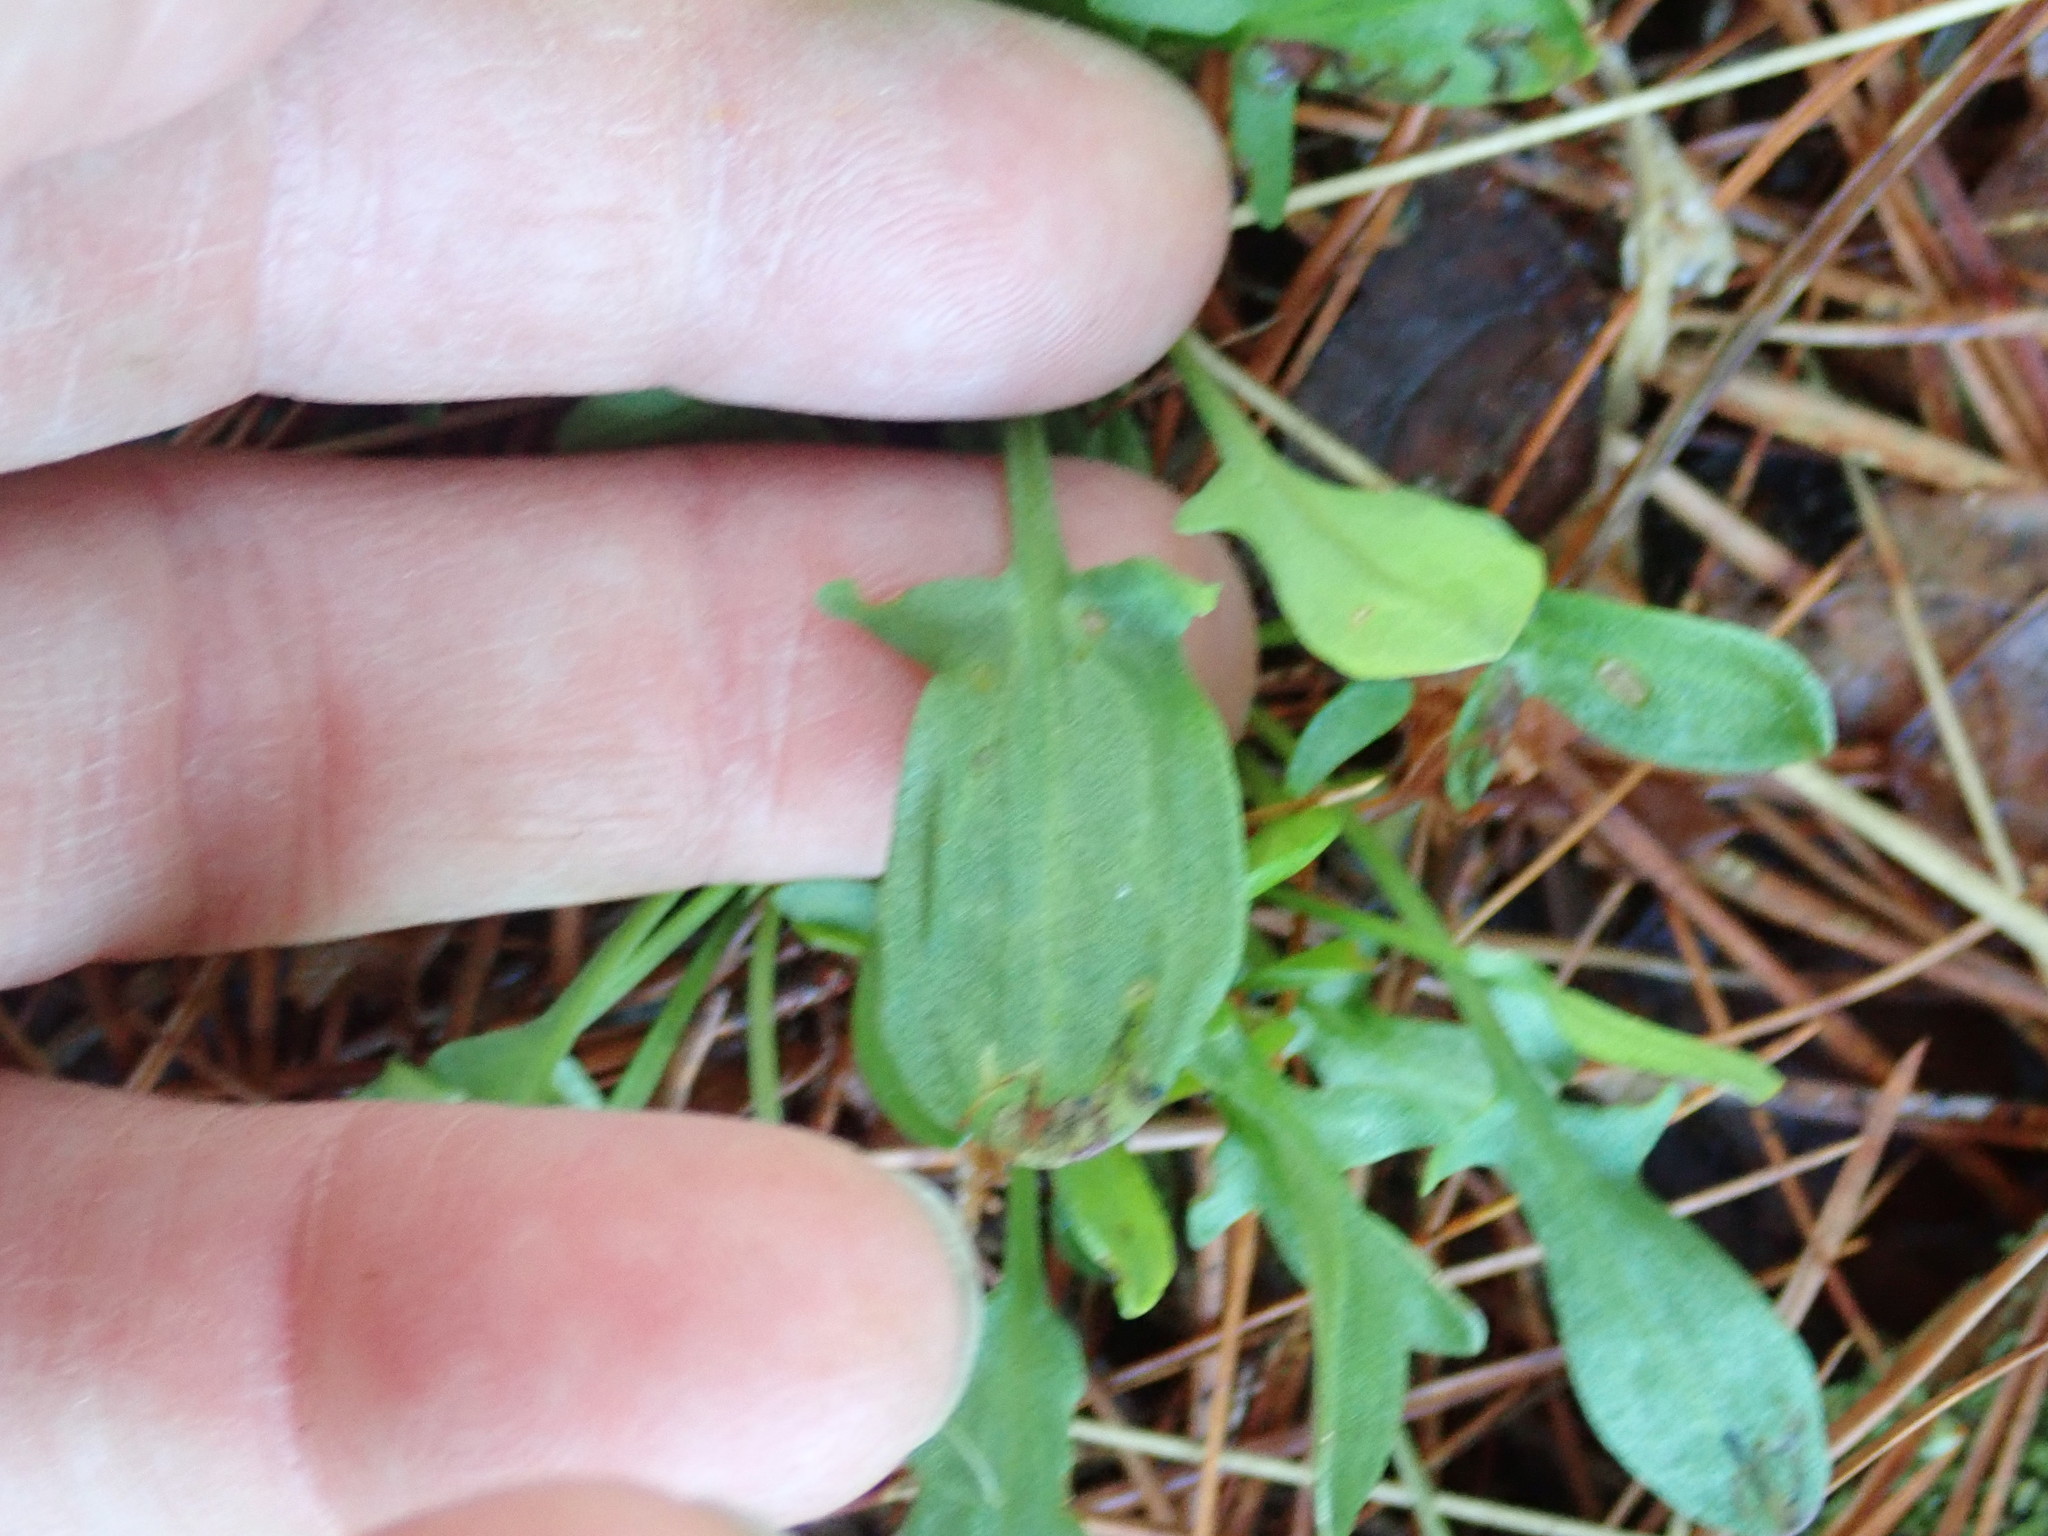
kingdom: Plantae
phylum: Tracheophyta
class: Magnoliopsida
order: Caryophyllales
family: Polygonaceae
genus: Rumex
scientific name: Rumex acetosella
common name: Common sheep sorrel
